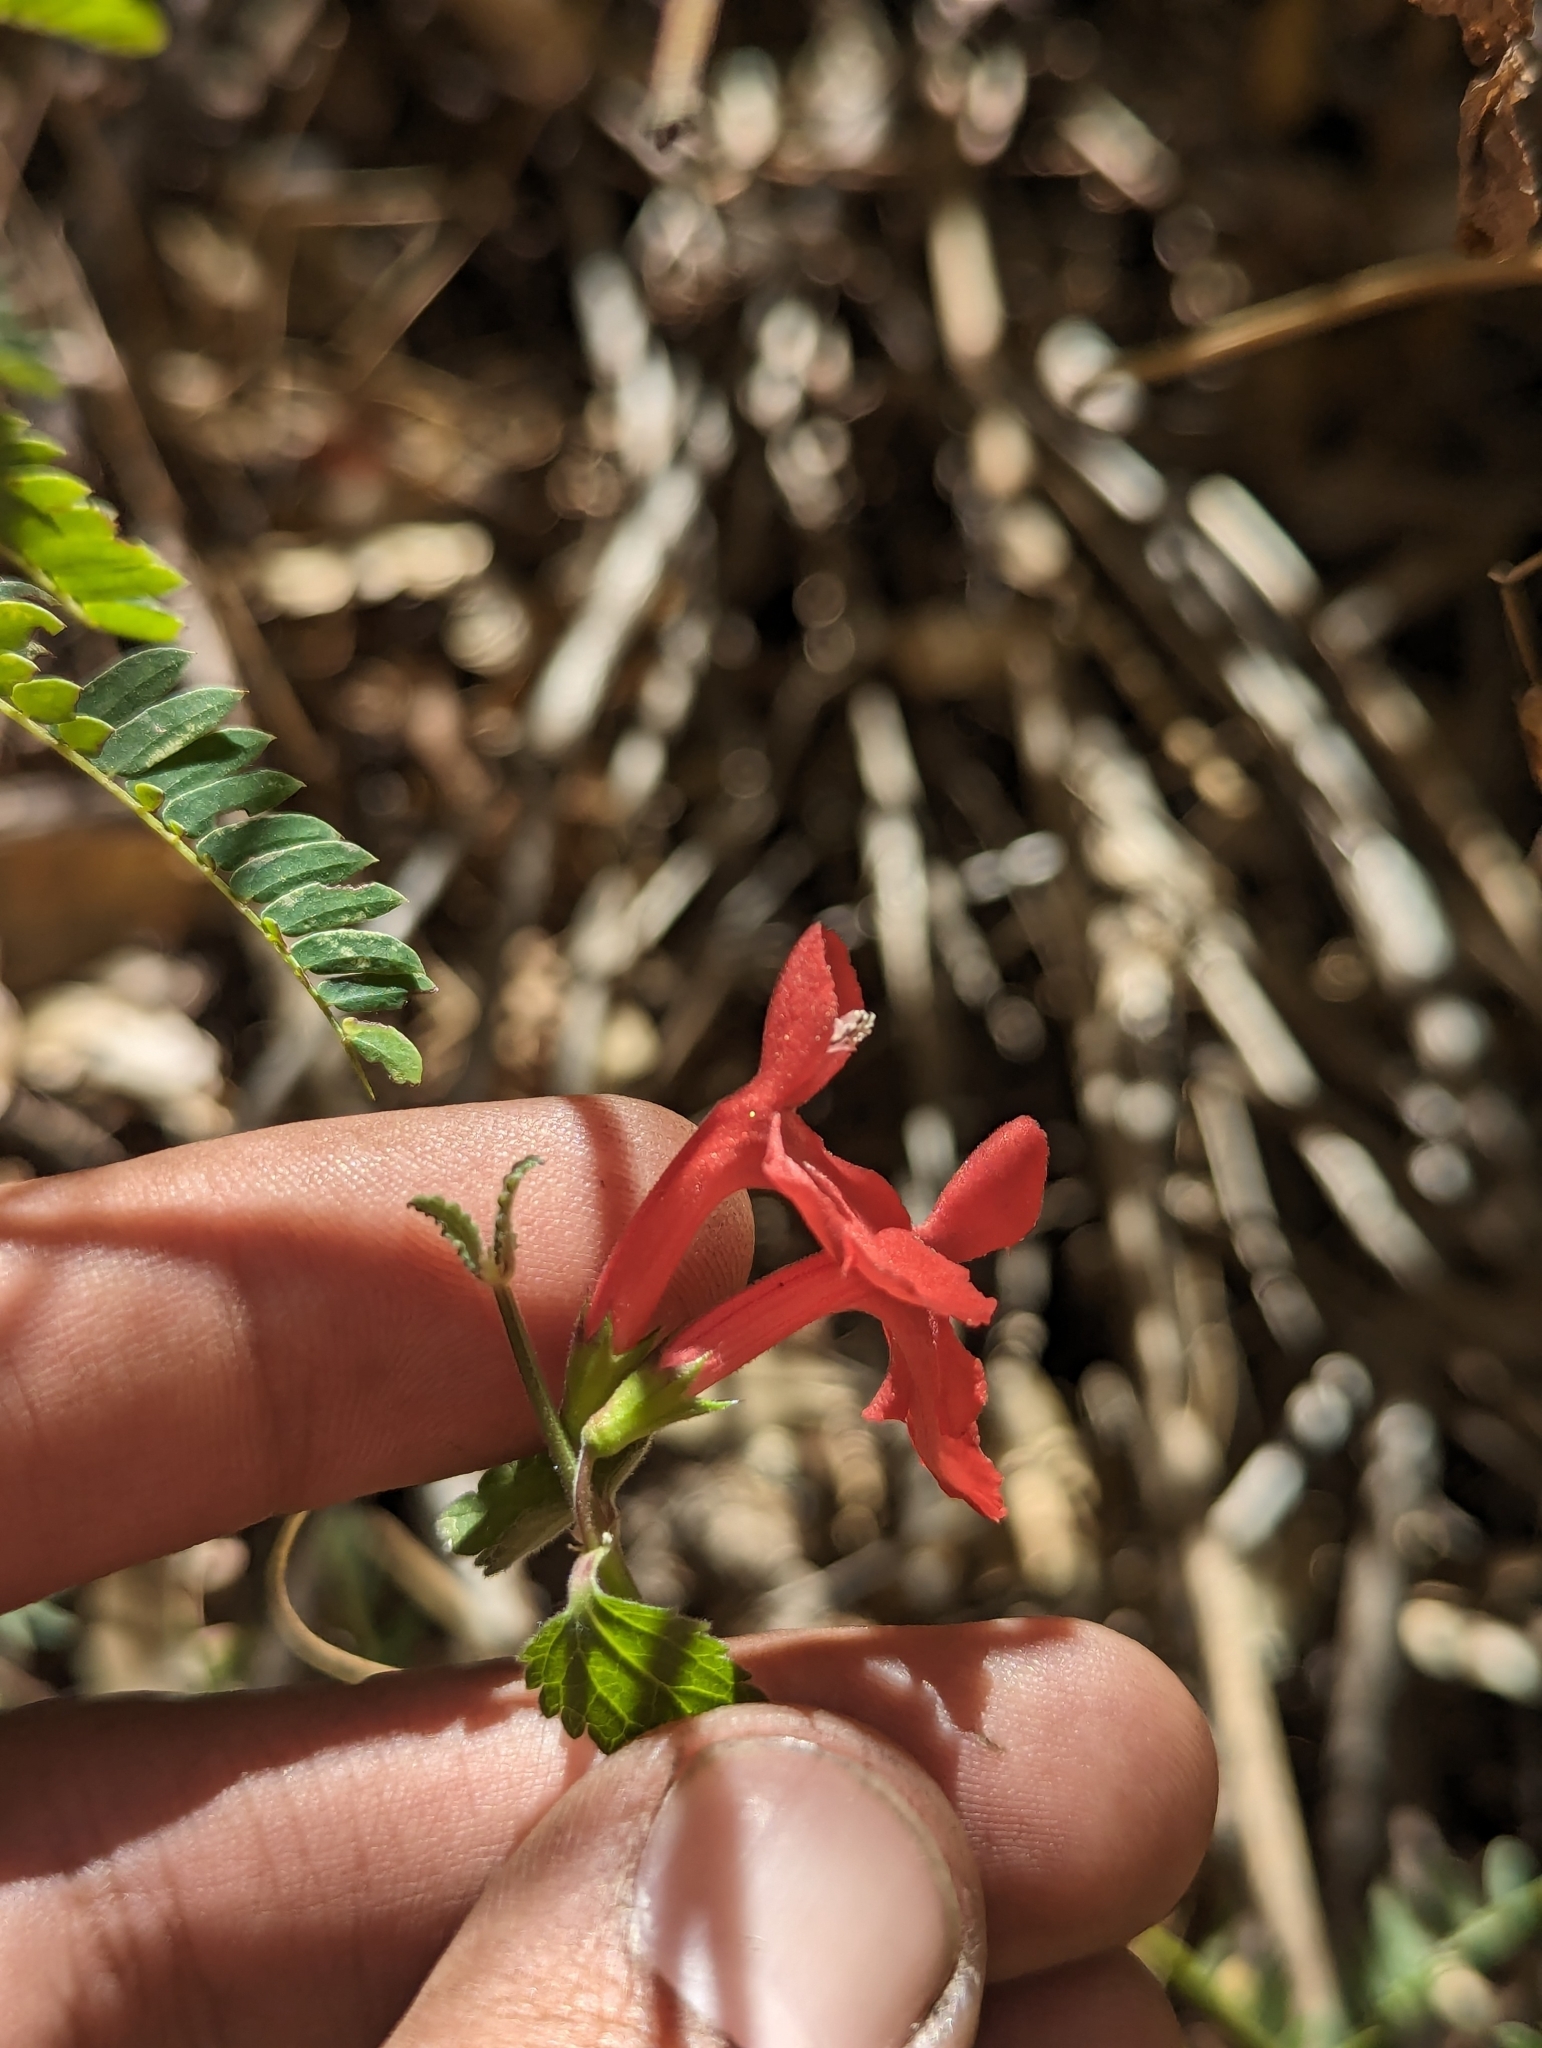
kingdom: Plantae
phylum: Tracheophyta
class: Magnoliopsida
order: Lamiales
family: Lamiaceae
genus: Stachys
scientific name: Stachys coccinea
